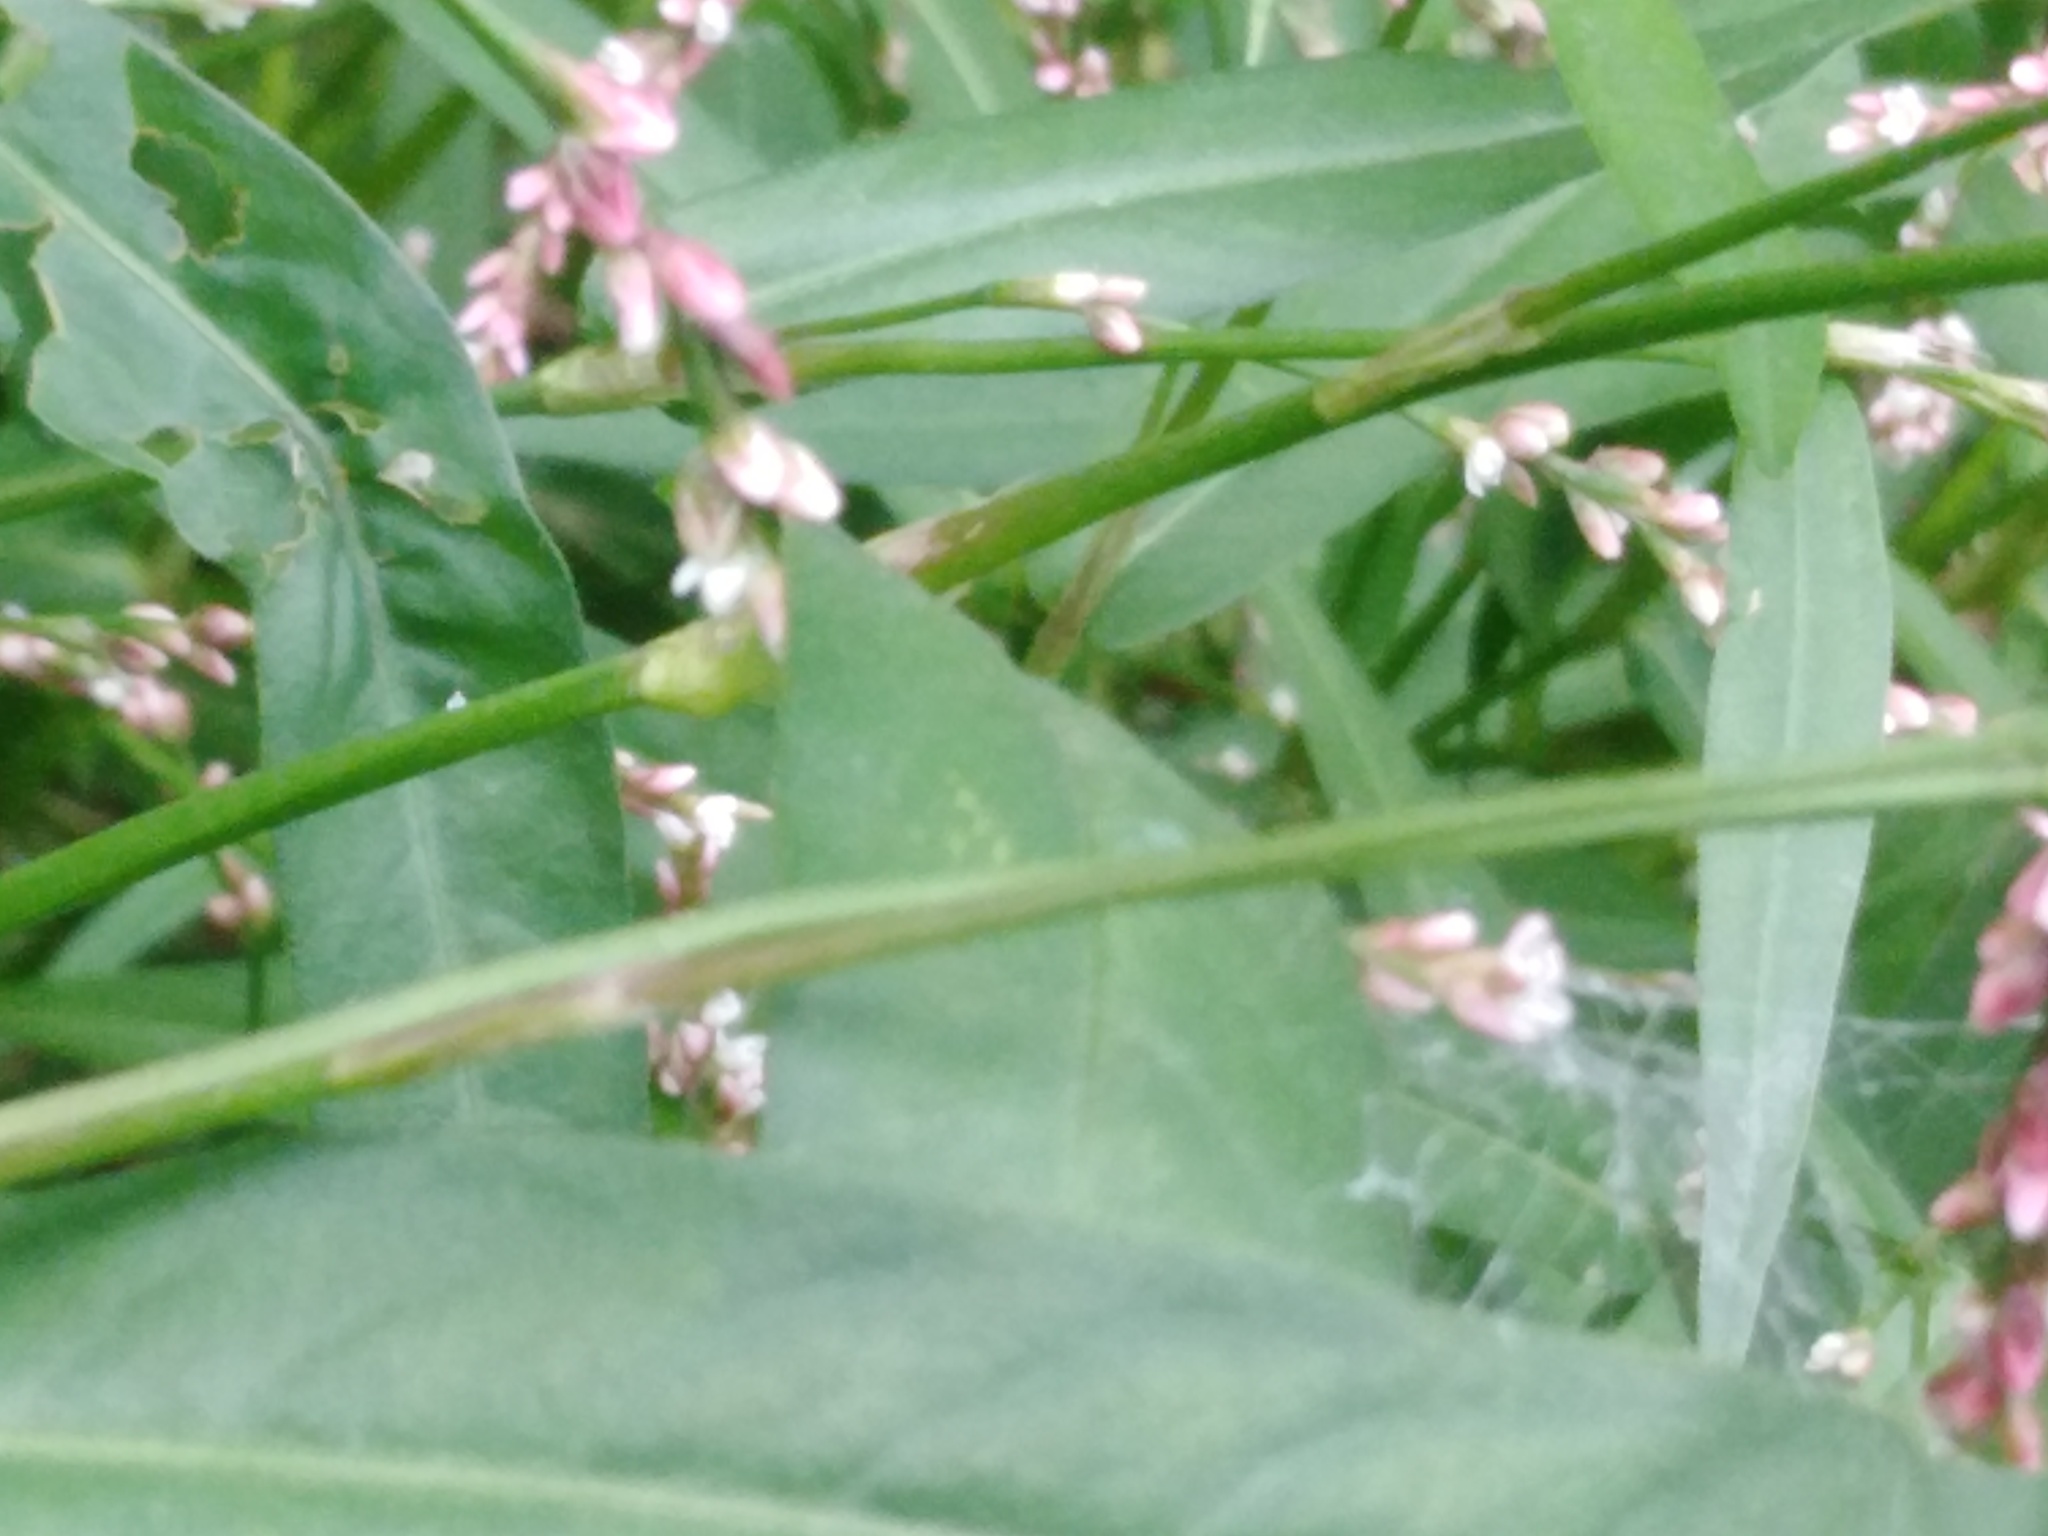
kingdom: Plantae
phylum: Tracheophyta
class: Magnoliopsida
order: Caryophyllales
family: Polygonaceae
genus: Persicaria
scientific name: Persicaria minor
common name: Small water-pepper
